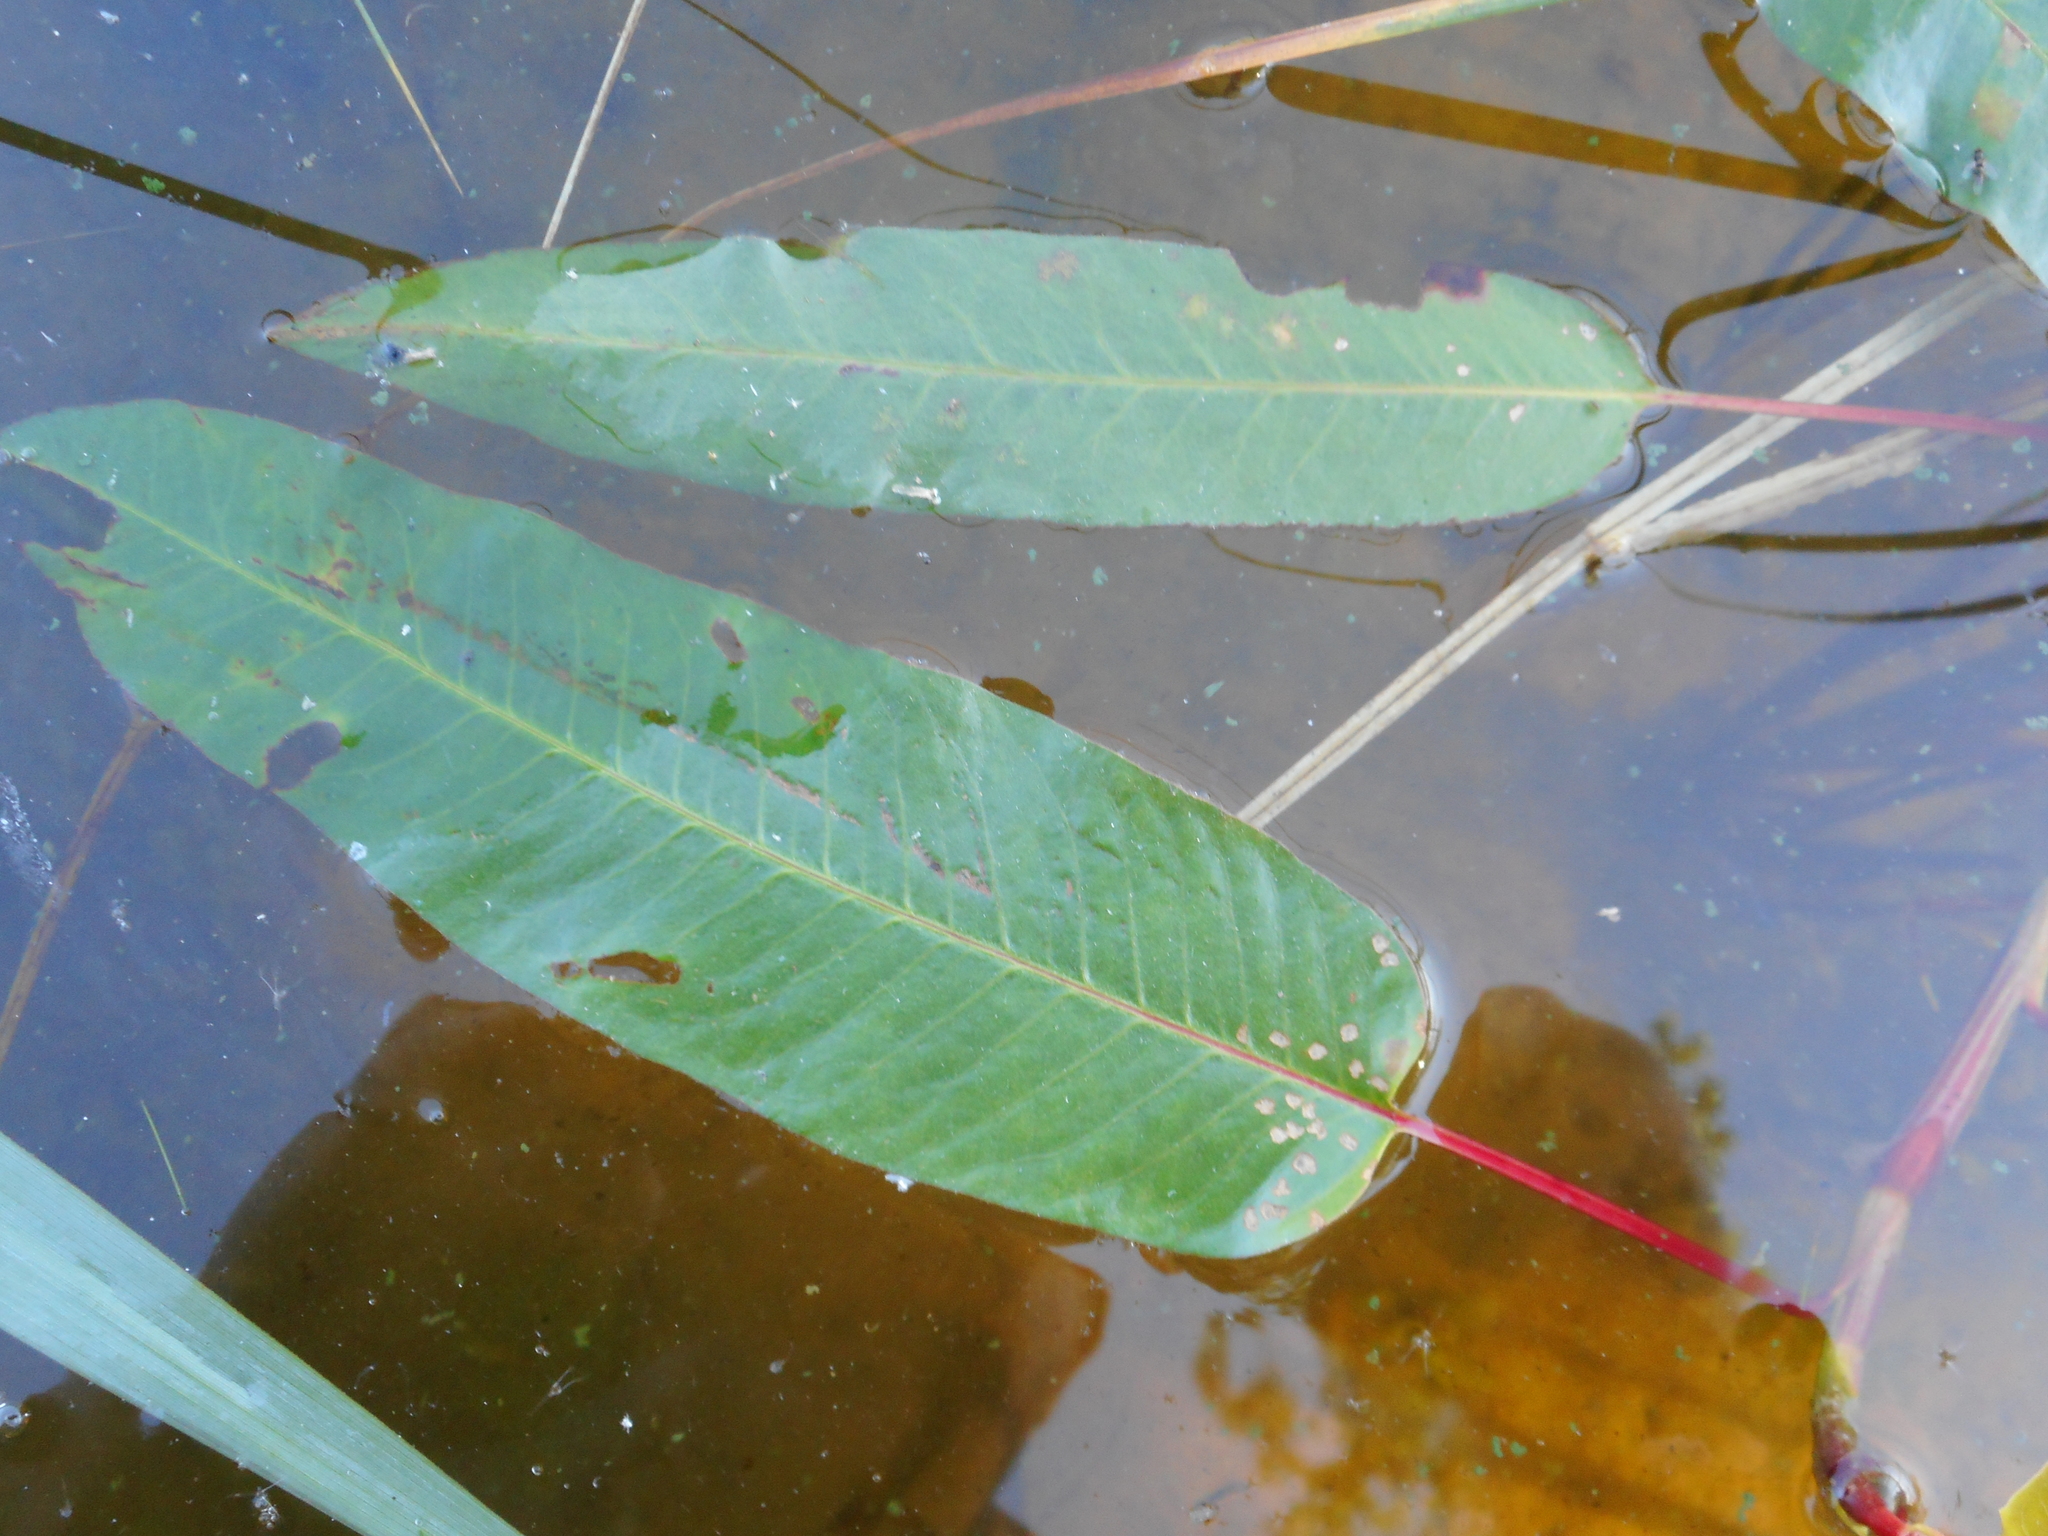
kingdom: Plantae
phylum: Tracheophyta
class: Magnoliopsida
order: Caryophyllales
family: Polygonaceae
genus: Persicaria
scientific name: Persicaria amphibia
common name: Amphibious bistort
